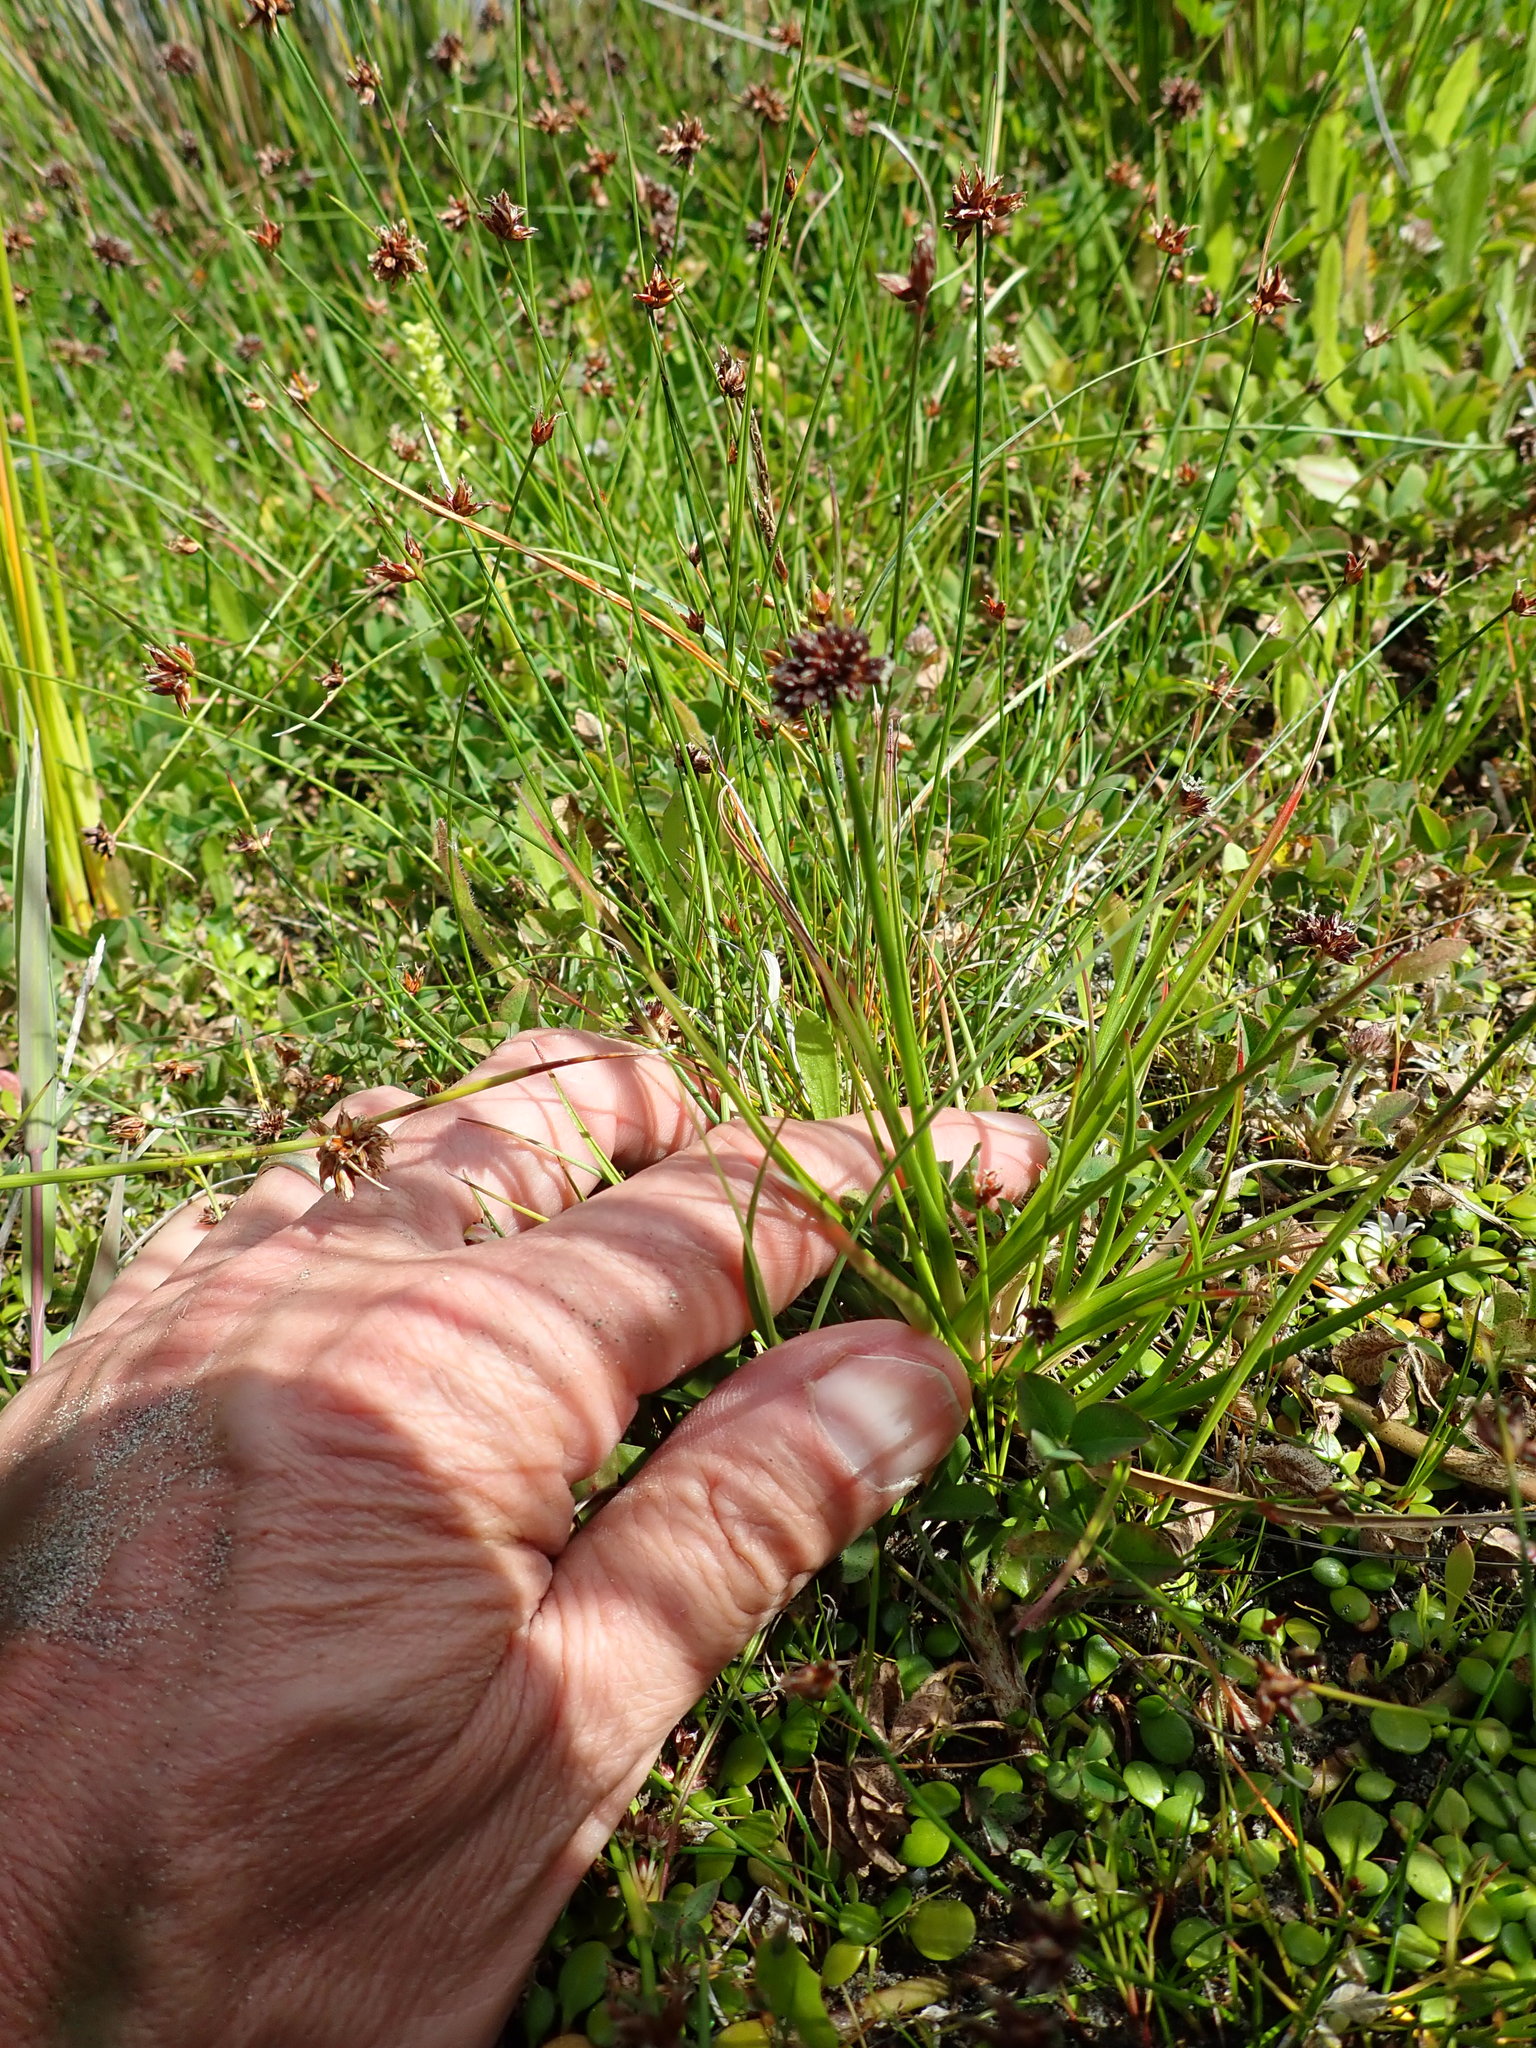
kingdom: Plantae
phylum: Tracheophyta
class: Liliopsida
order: Poales
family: Juncaceae
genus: Juncus
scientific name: Juncus caespiticius
